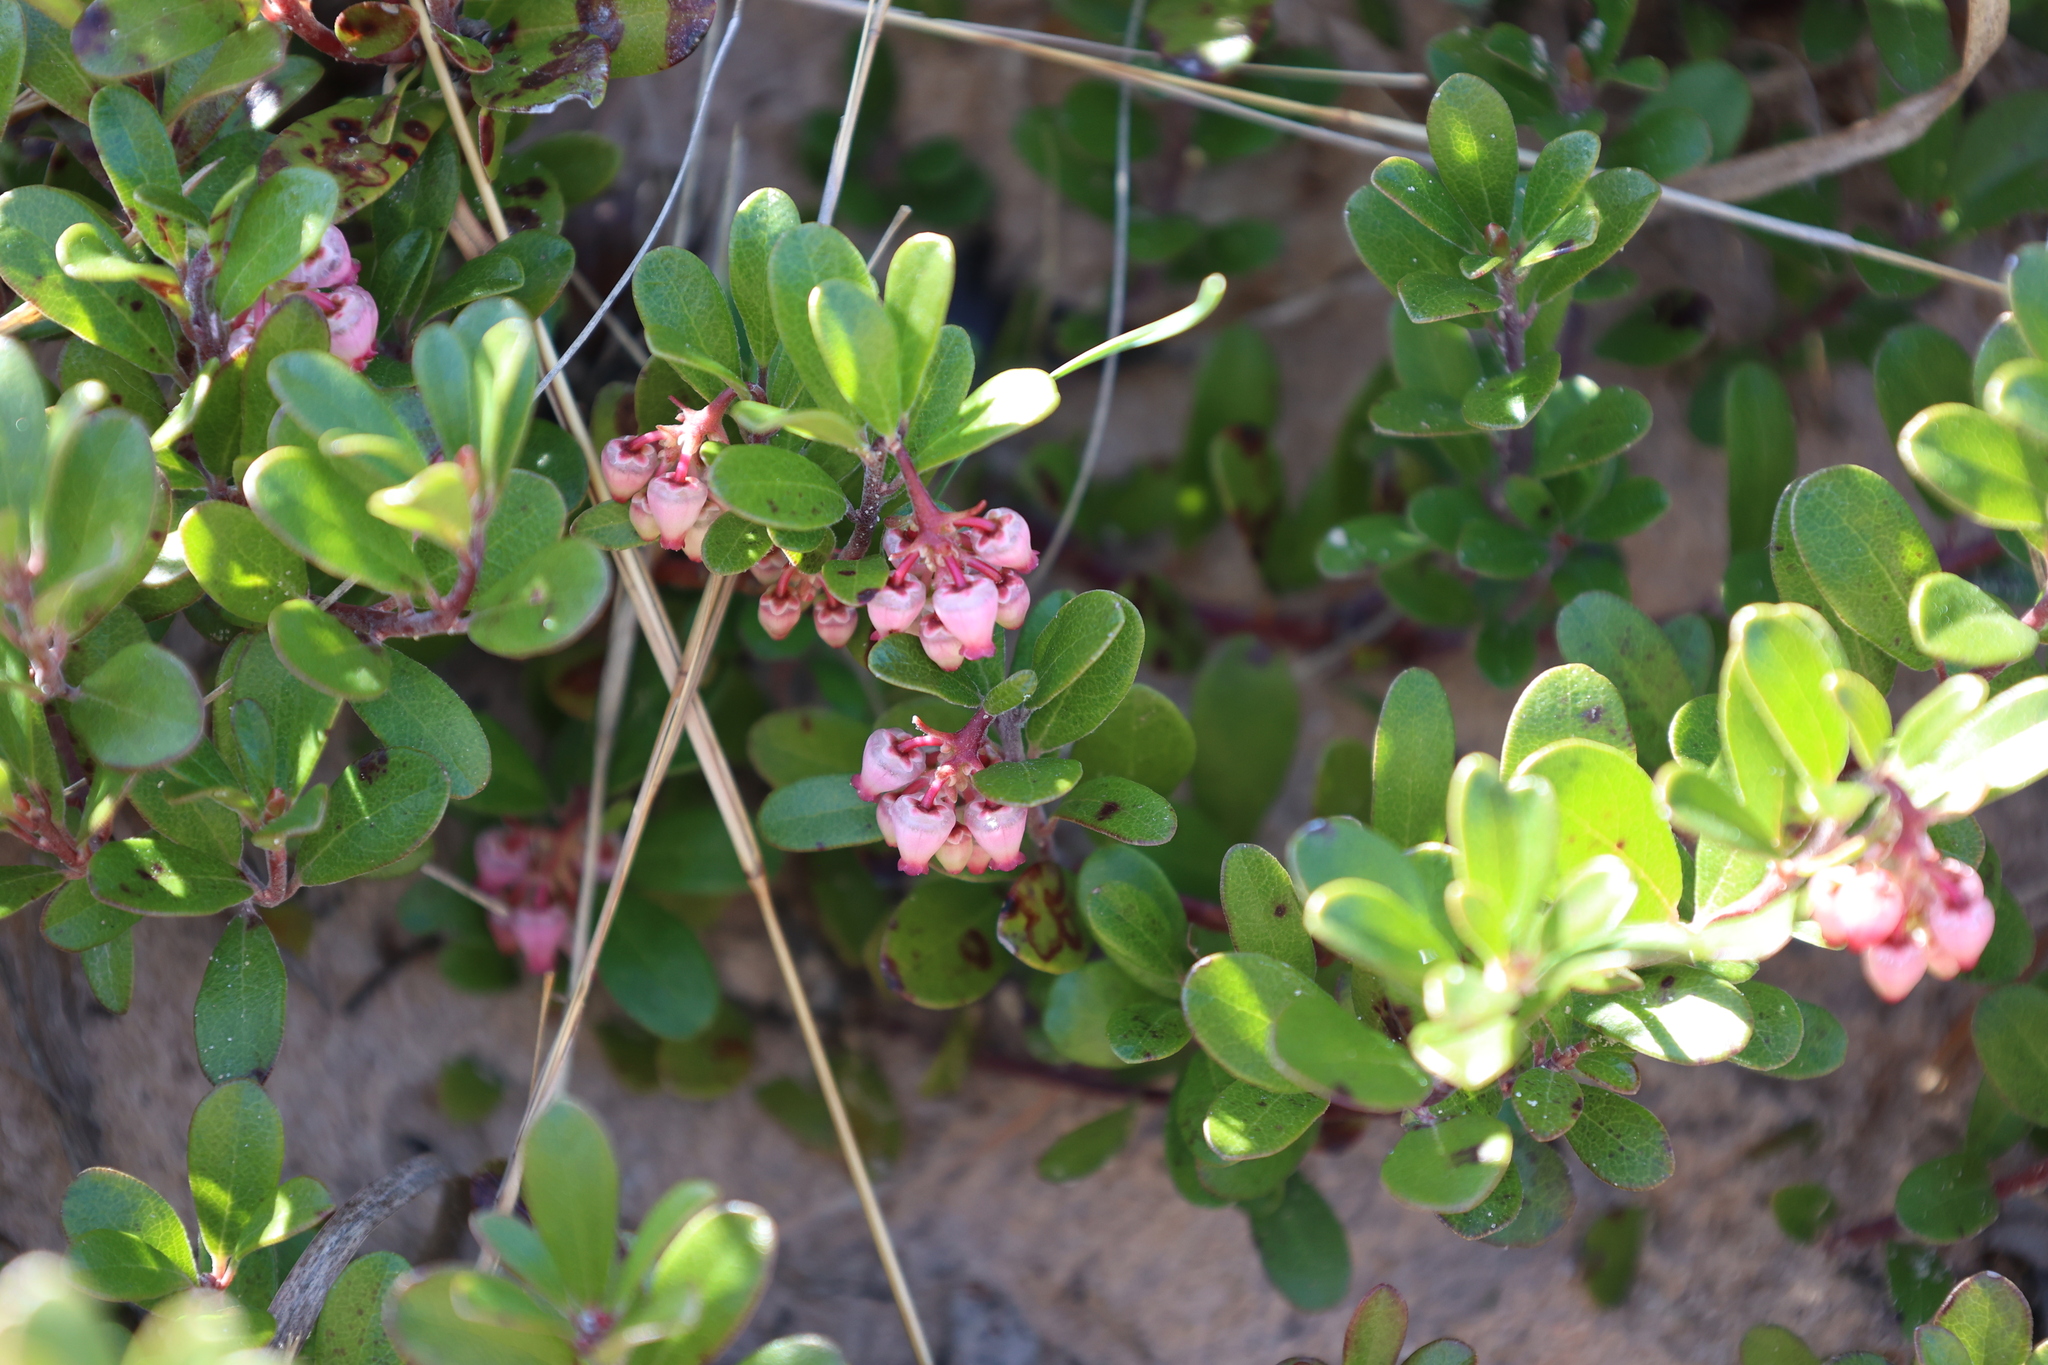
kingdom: Plantae
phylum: Tracheophyta
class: Magnoliopsida
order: Ericales
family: Ericaceae
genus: Arctostaphylos
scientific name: Arctostaphylos uva-ursi
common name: Bearberry
